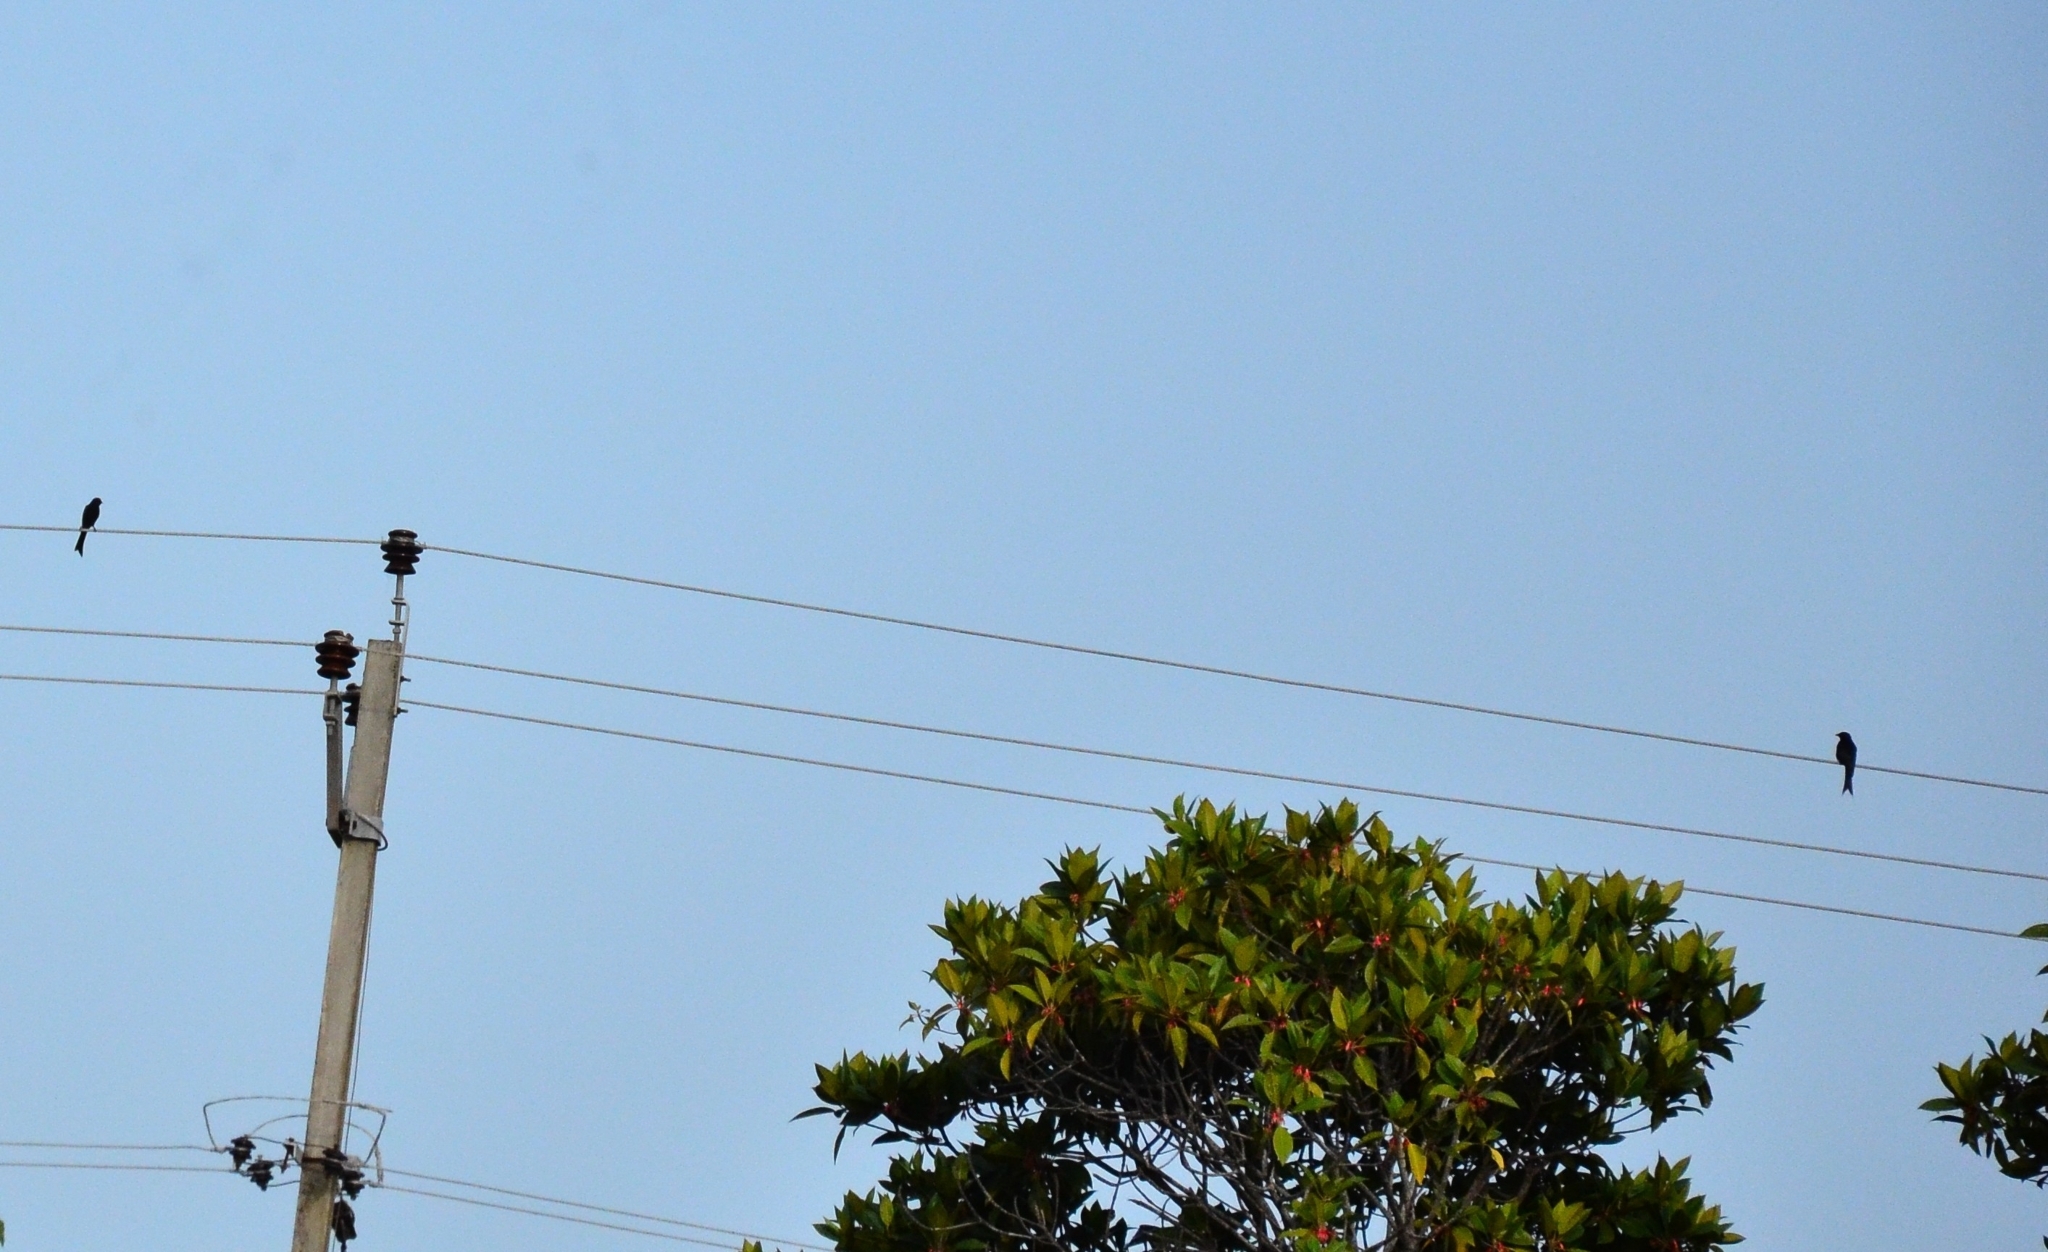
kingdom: Animalia
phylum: Chordata
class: Aves
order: Passeriformes
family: Dicruridae
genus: Dicrurus
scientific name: Dicrurus macrocercus
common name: Black drongo
